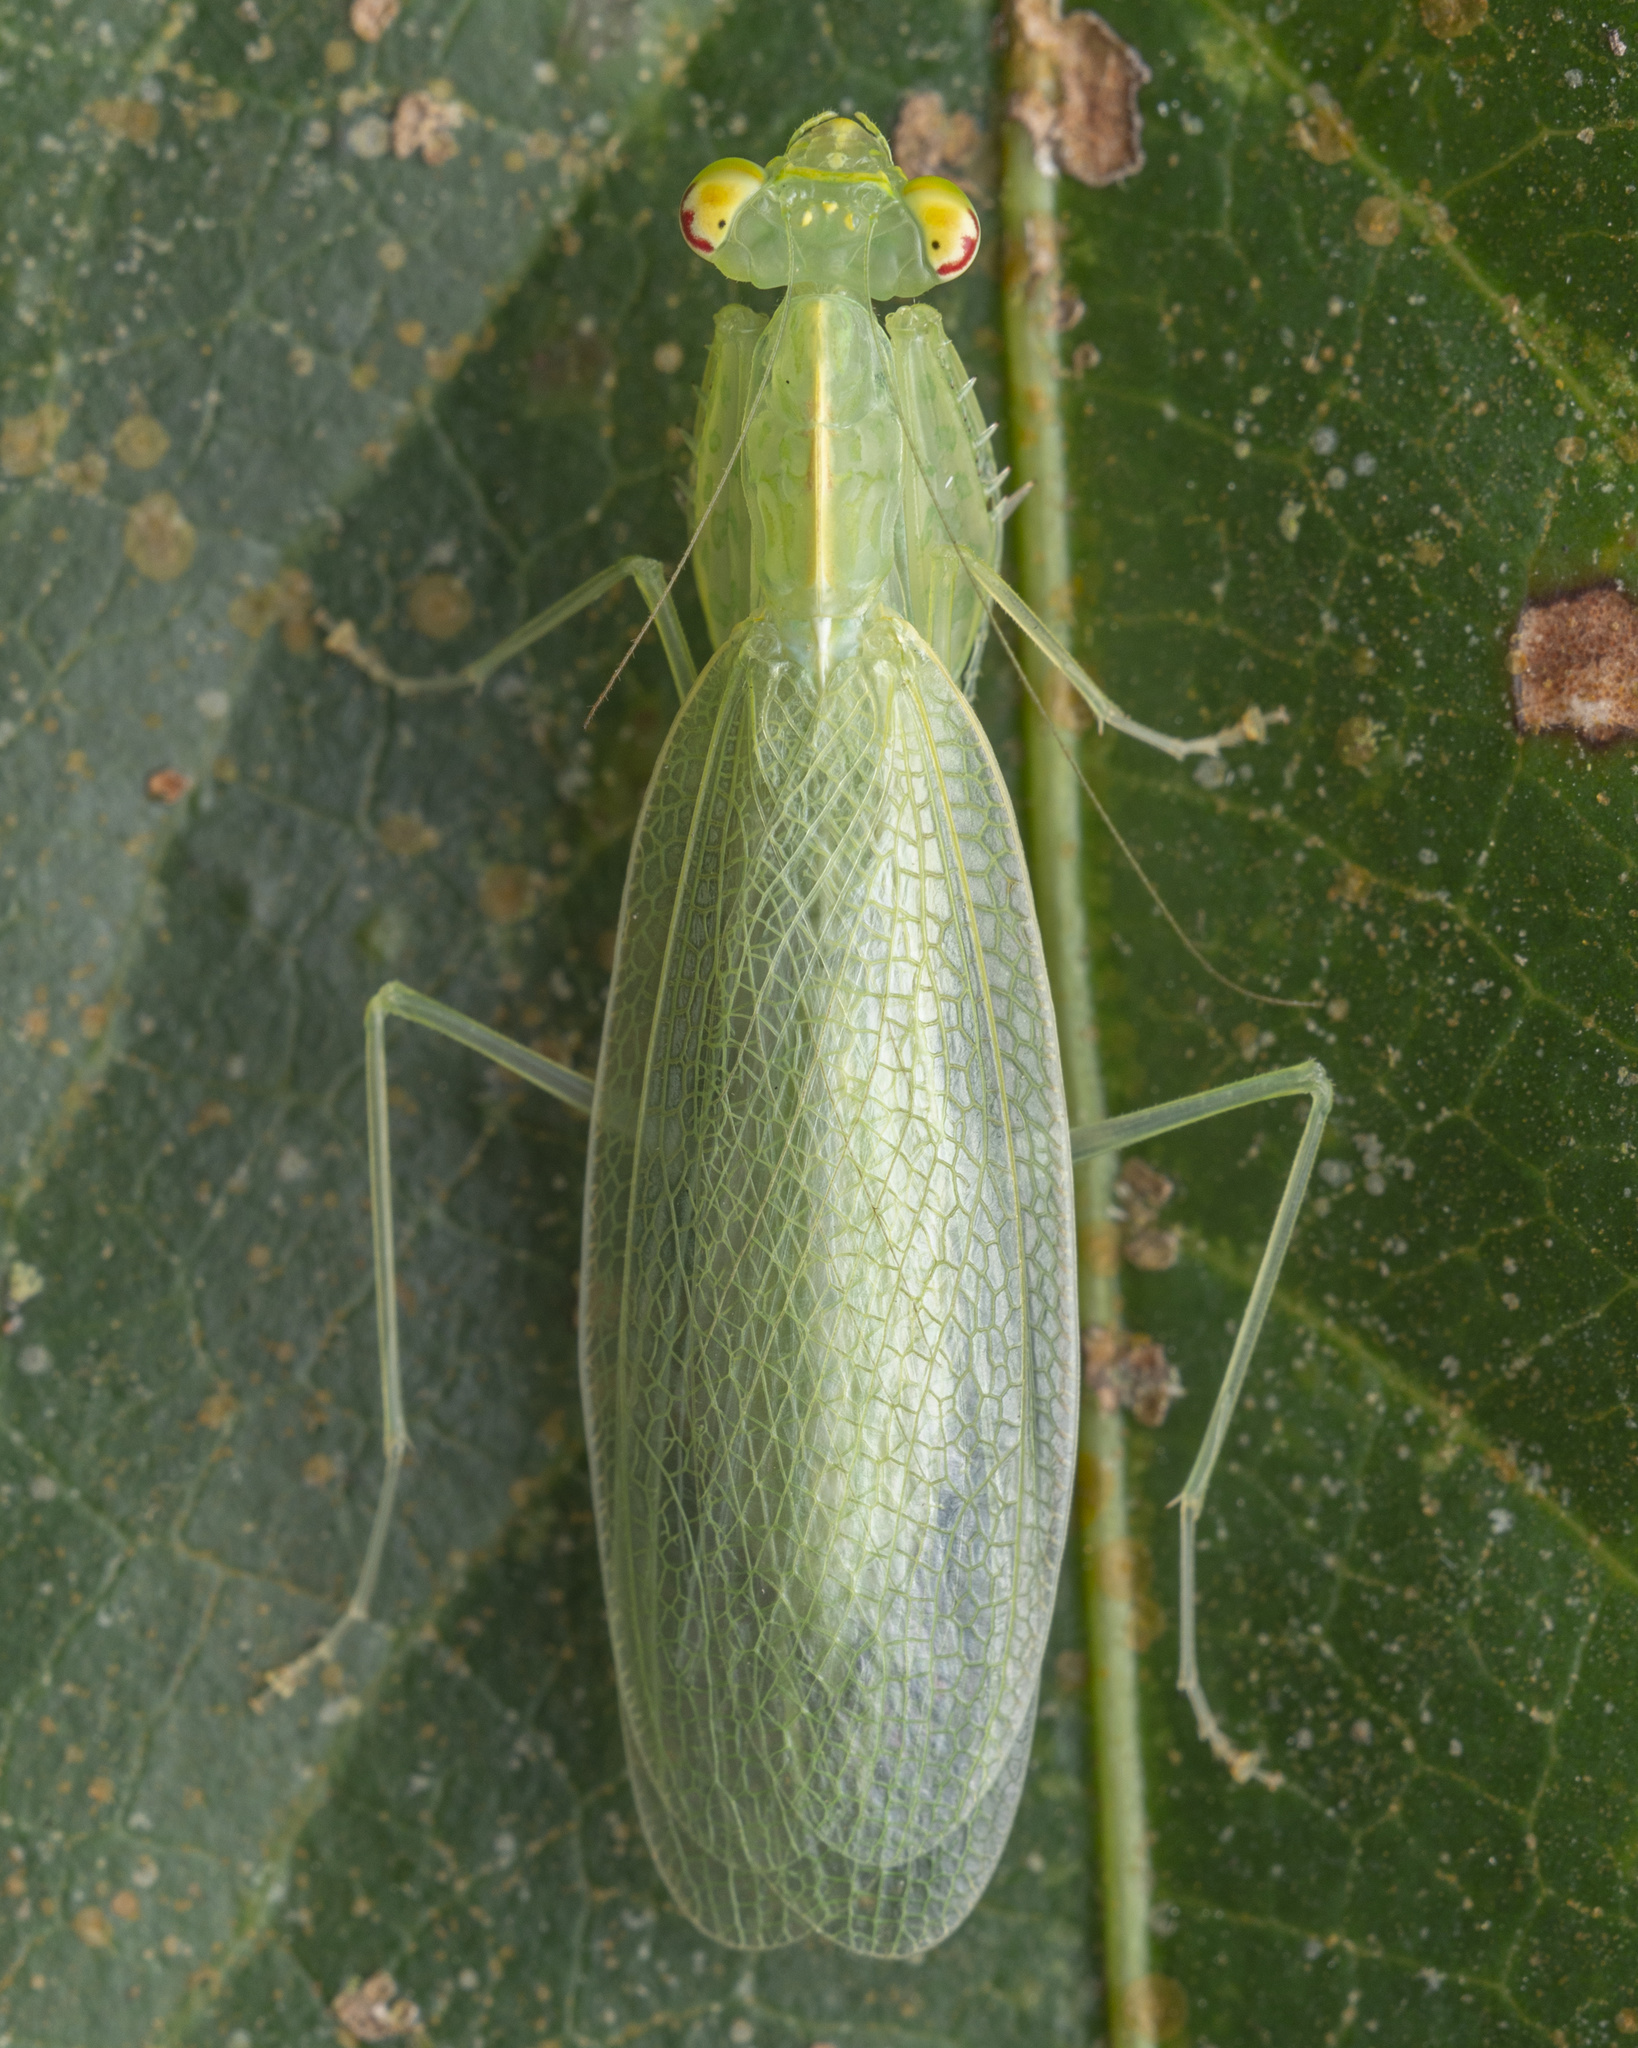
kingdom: Animalia
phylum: Arthropoda
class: Insecta
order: Mantodea
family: Nanomantidae
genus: Tropidomantis
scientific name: Tropidomantis gressitti
